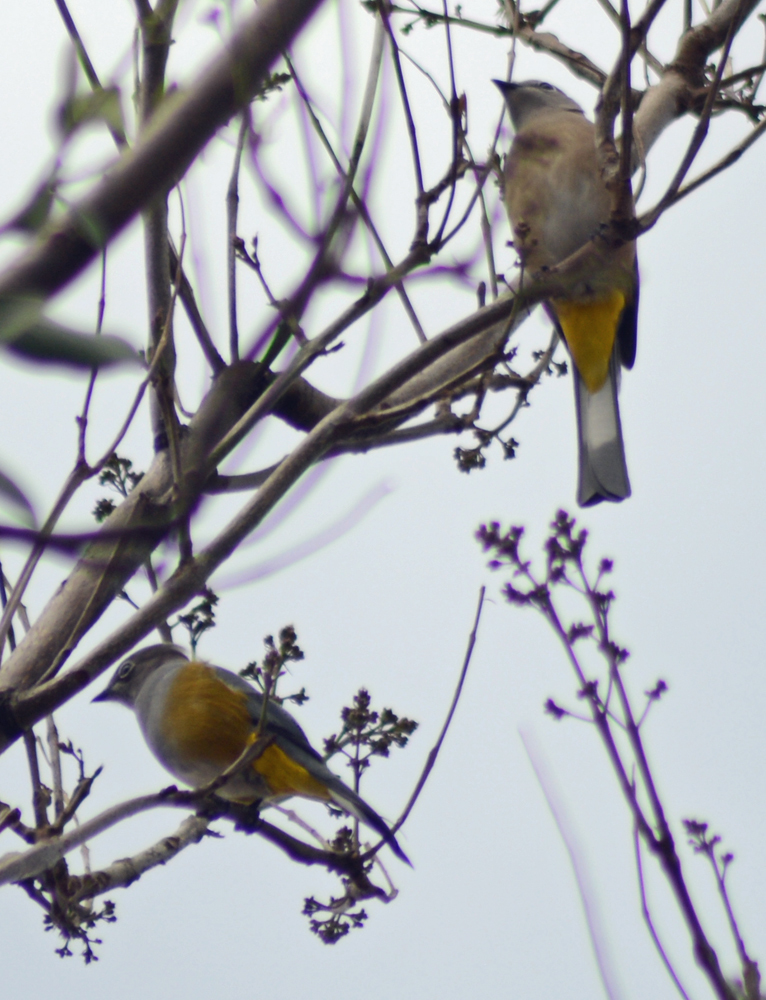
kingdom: Animalia
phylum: Chordata
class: Aves
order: Passeriformes
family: Ptilogonatidae
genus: Ptilogonys
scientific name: Ptilogonys cinereus
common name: Gray silky-flycatcher
